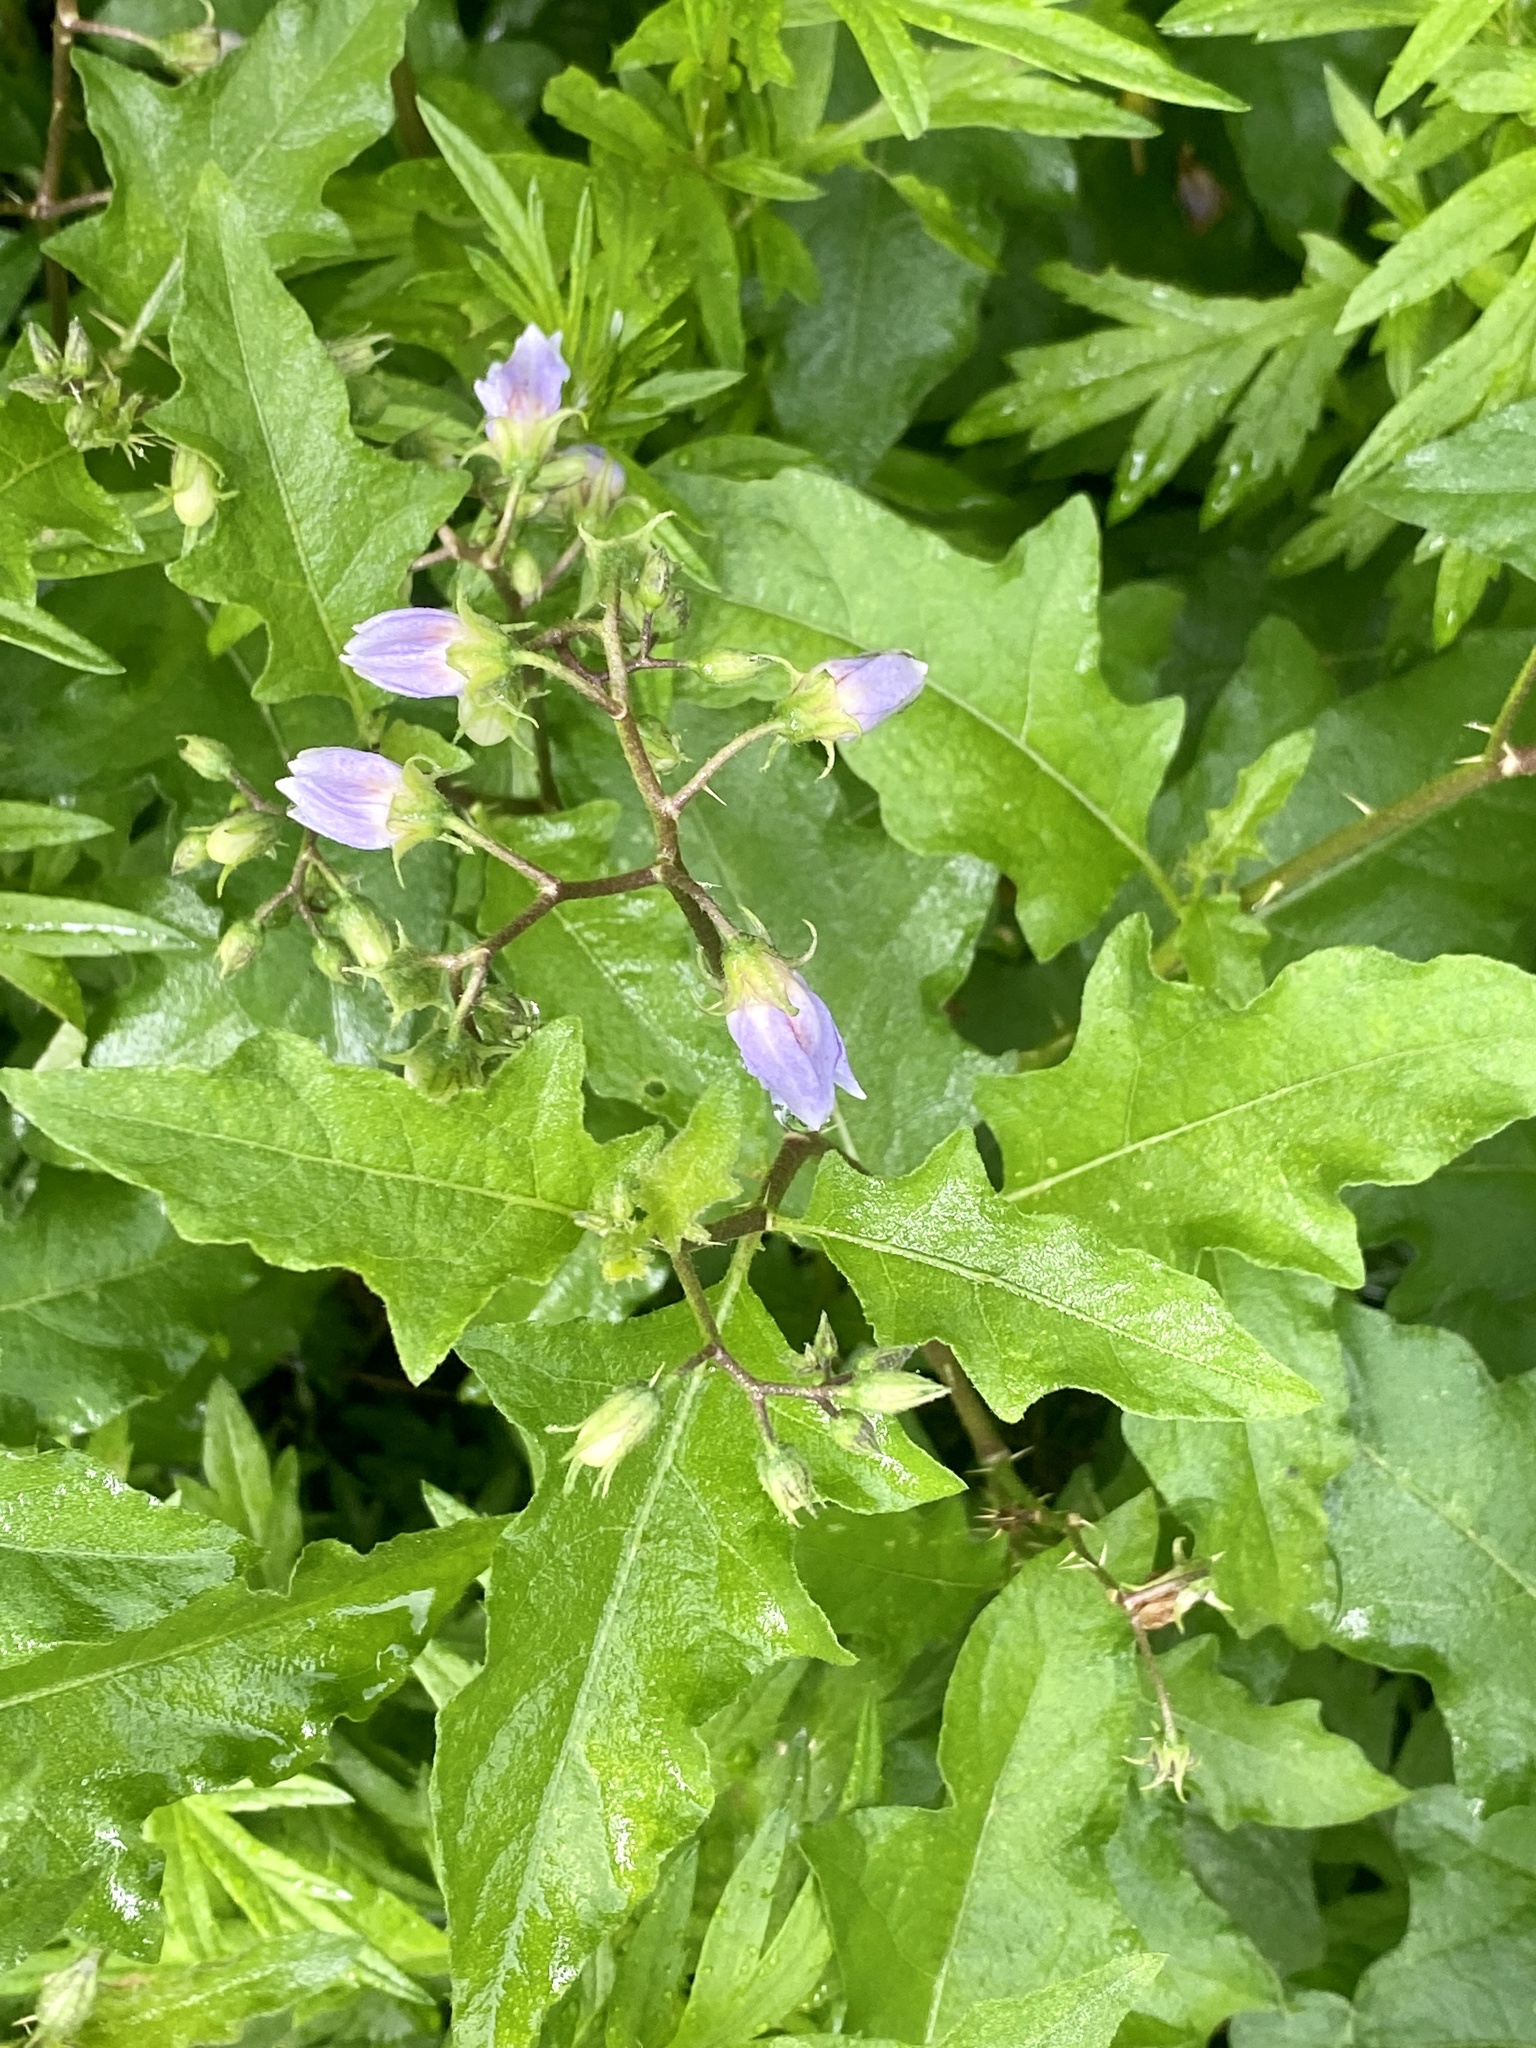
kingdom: Plantae
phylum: Tracheophyta
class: Magnoliopsida
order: Solanales
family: Solanaceae
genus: Solanum
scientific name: Solanum carolinense
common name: Horse-nettle
